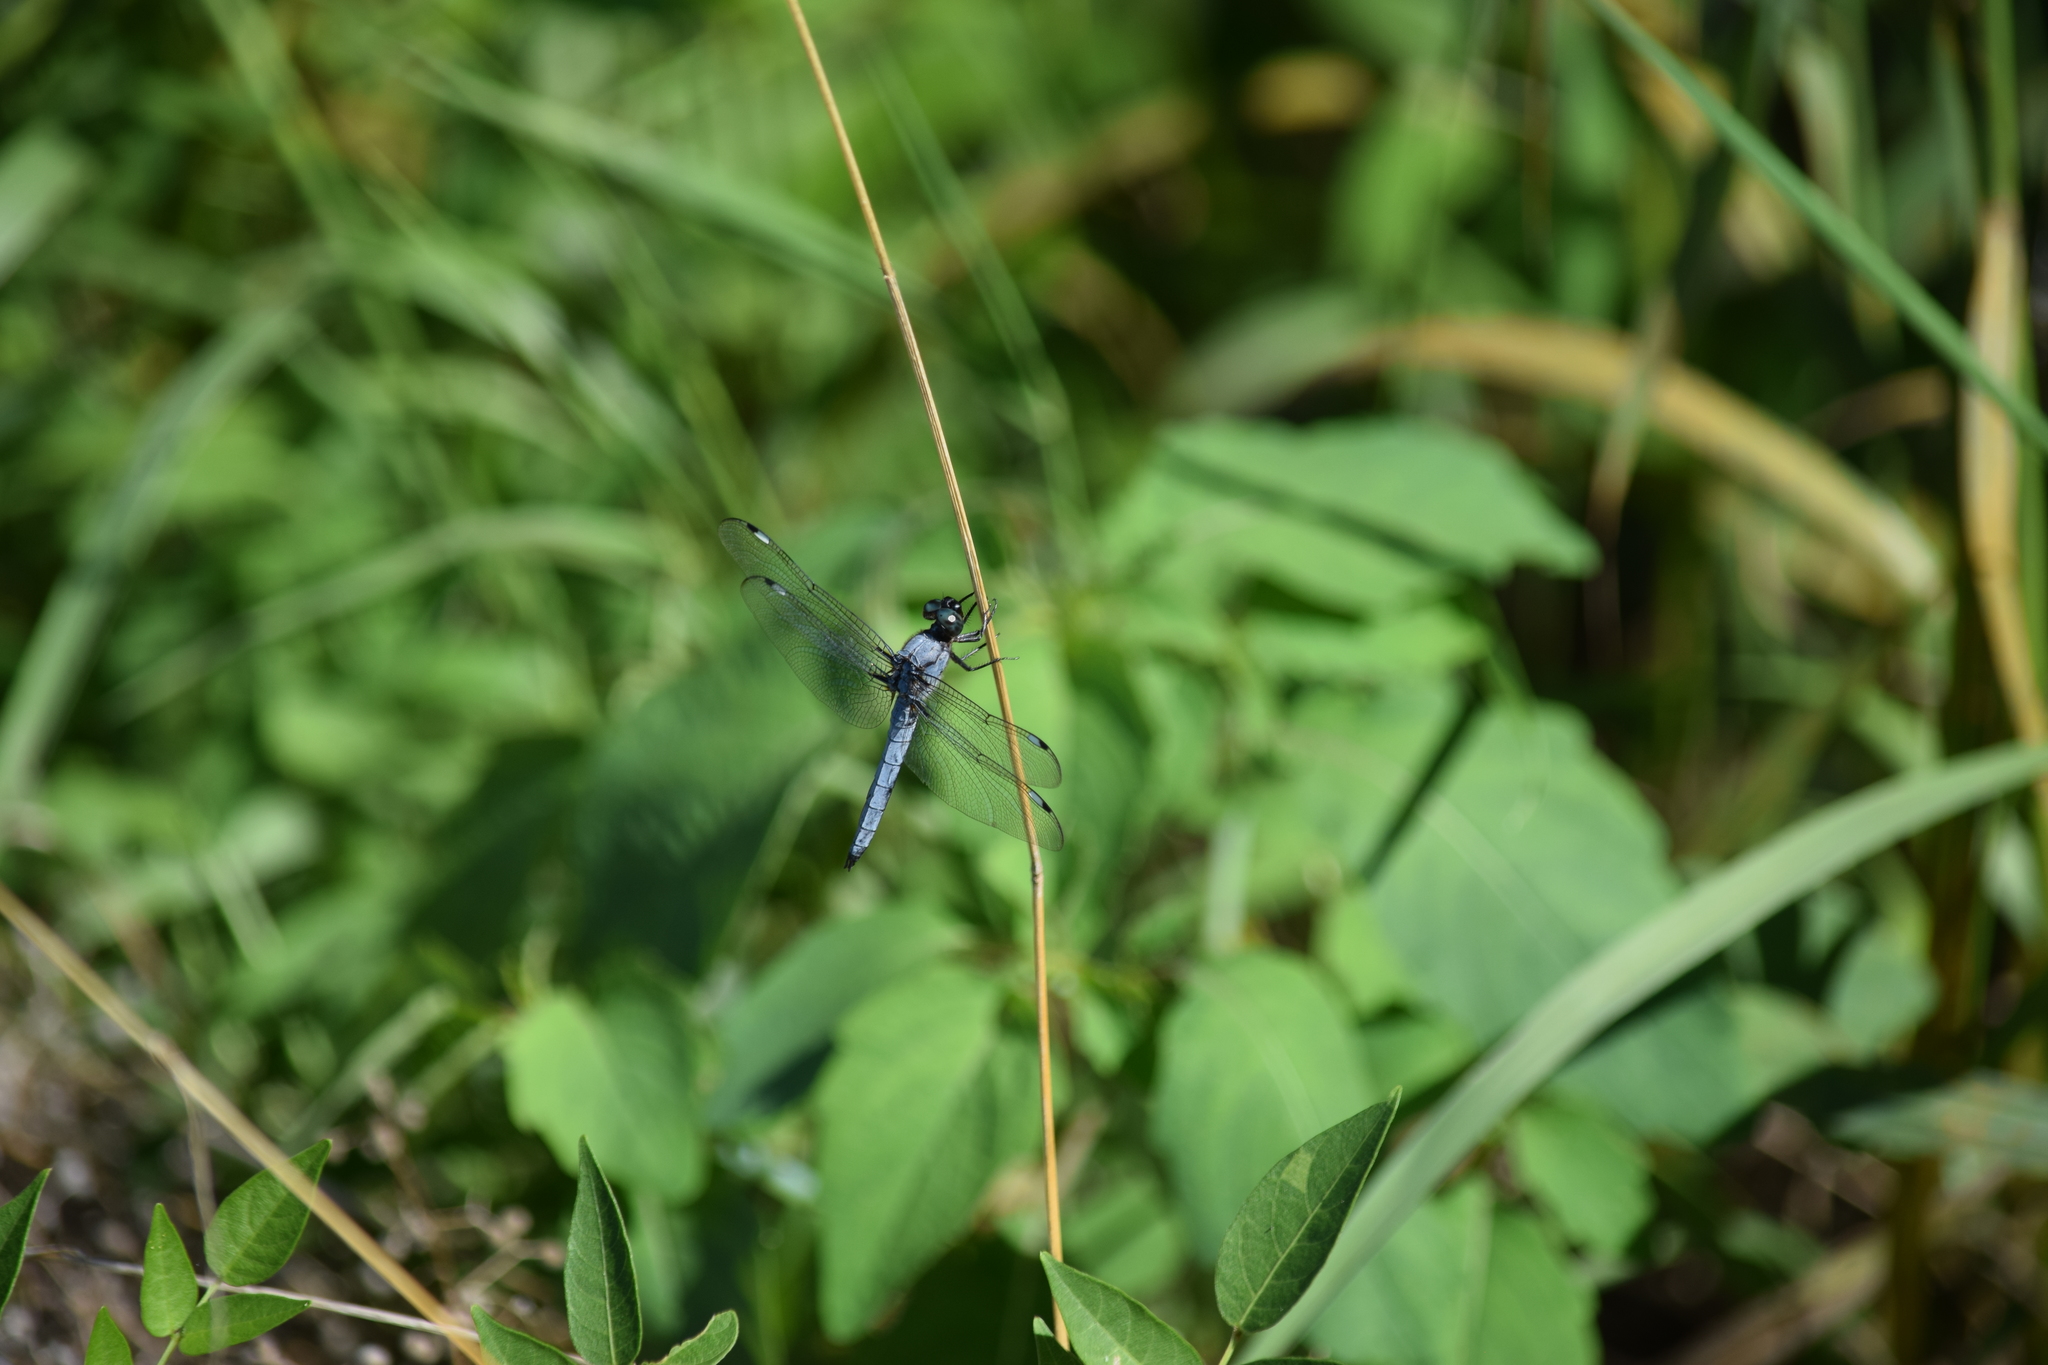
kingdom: Animalia
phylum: Arthropoda
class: Insecta
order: Odonata
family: Libellulidae
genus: Libellula
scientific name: Libellula cyanea
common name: Spangled skimmer
